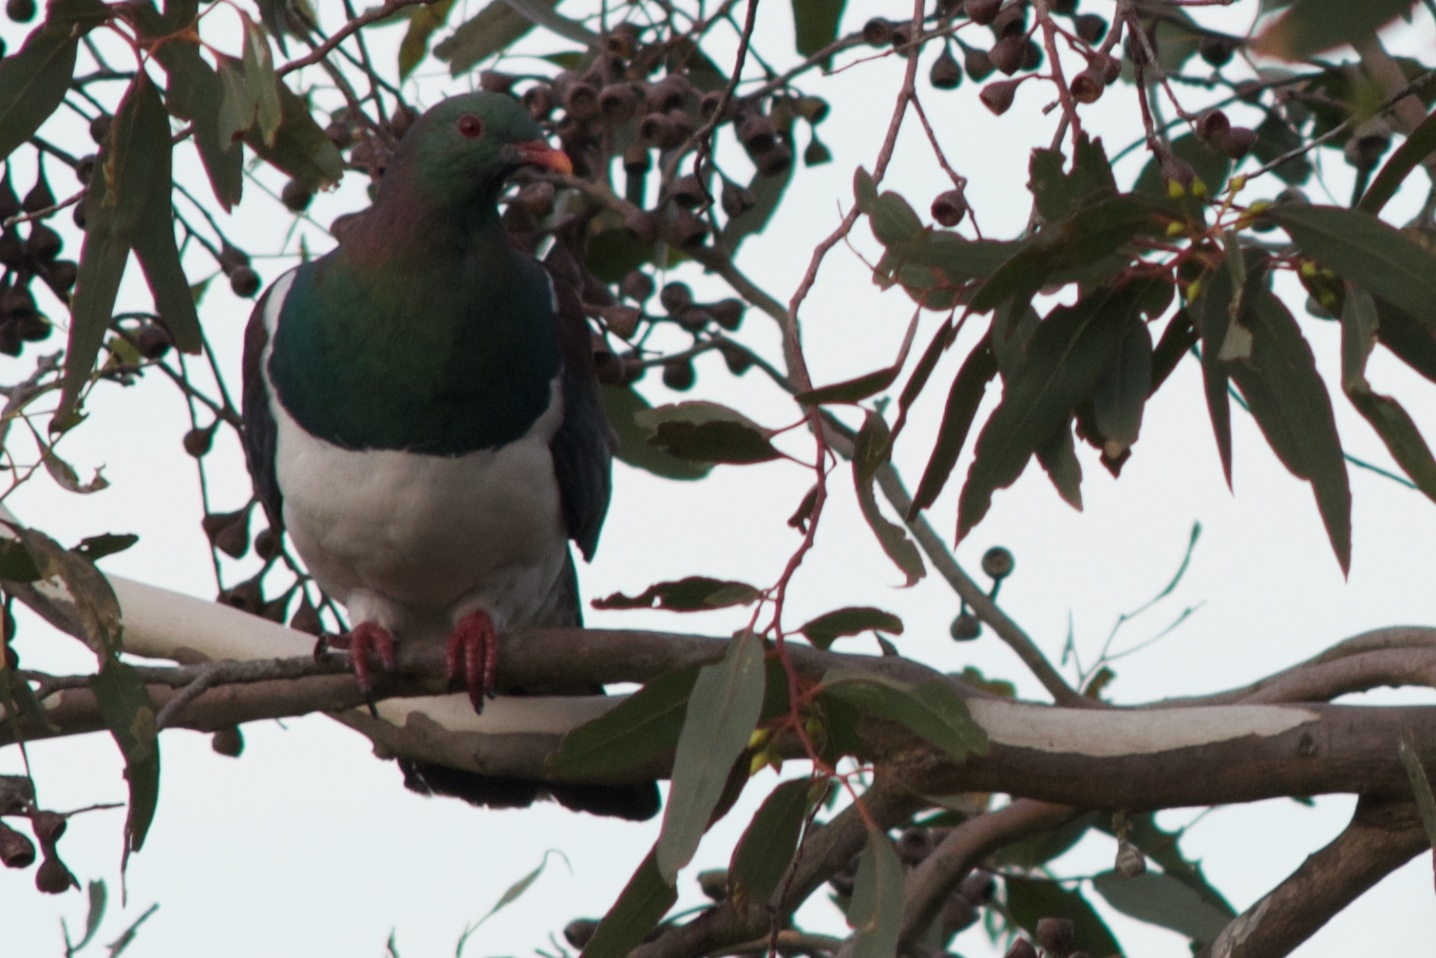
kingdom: Animalia
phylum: Chordata
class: Aves
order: Columbiformes
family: Columbidae
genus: Hemiphaga
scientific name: Hemiphaga novaeseelandiae
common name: New zealand pigeon
